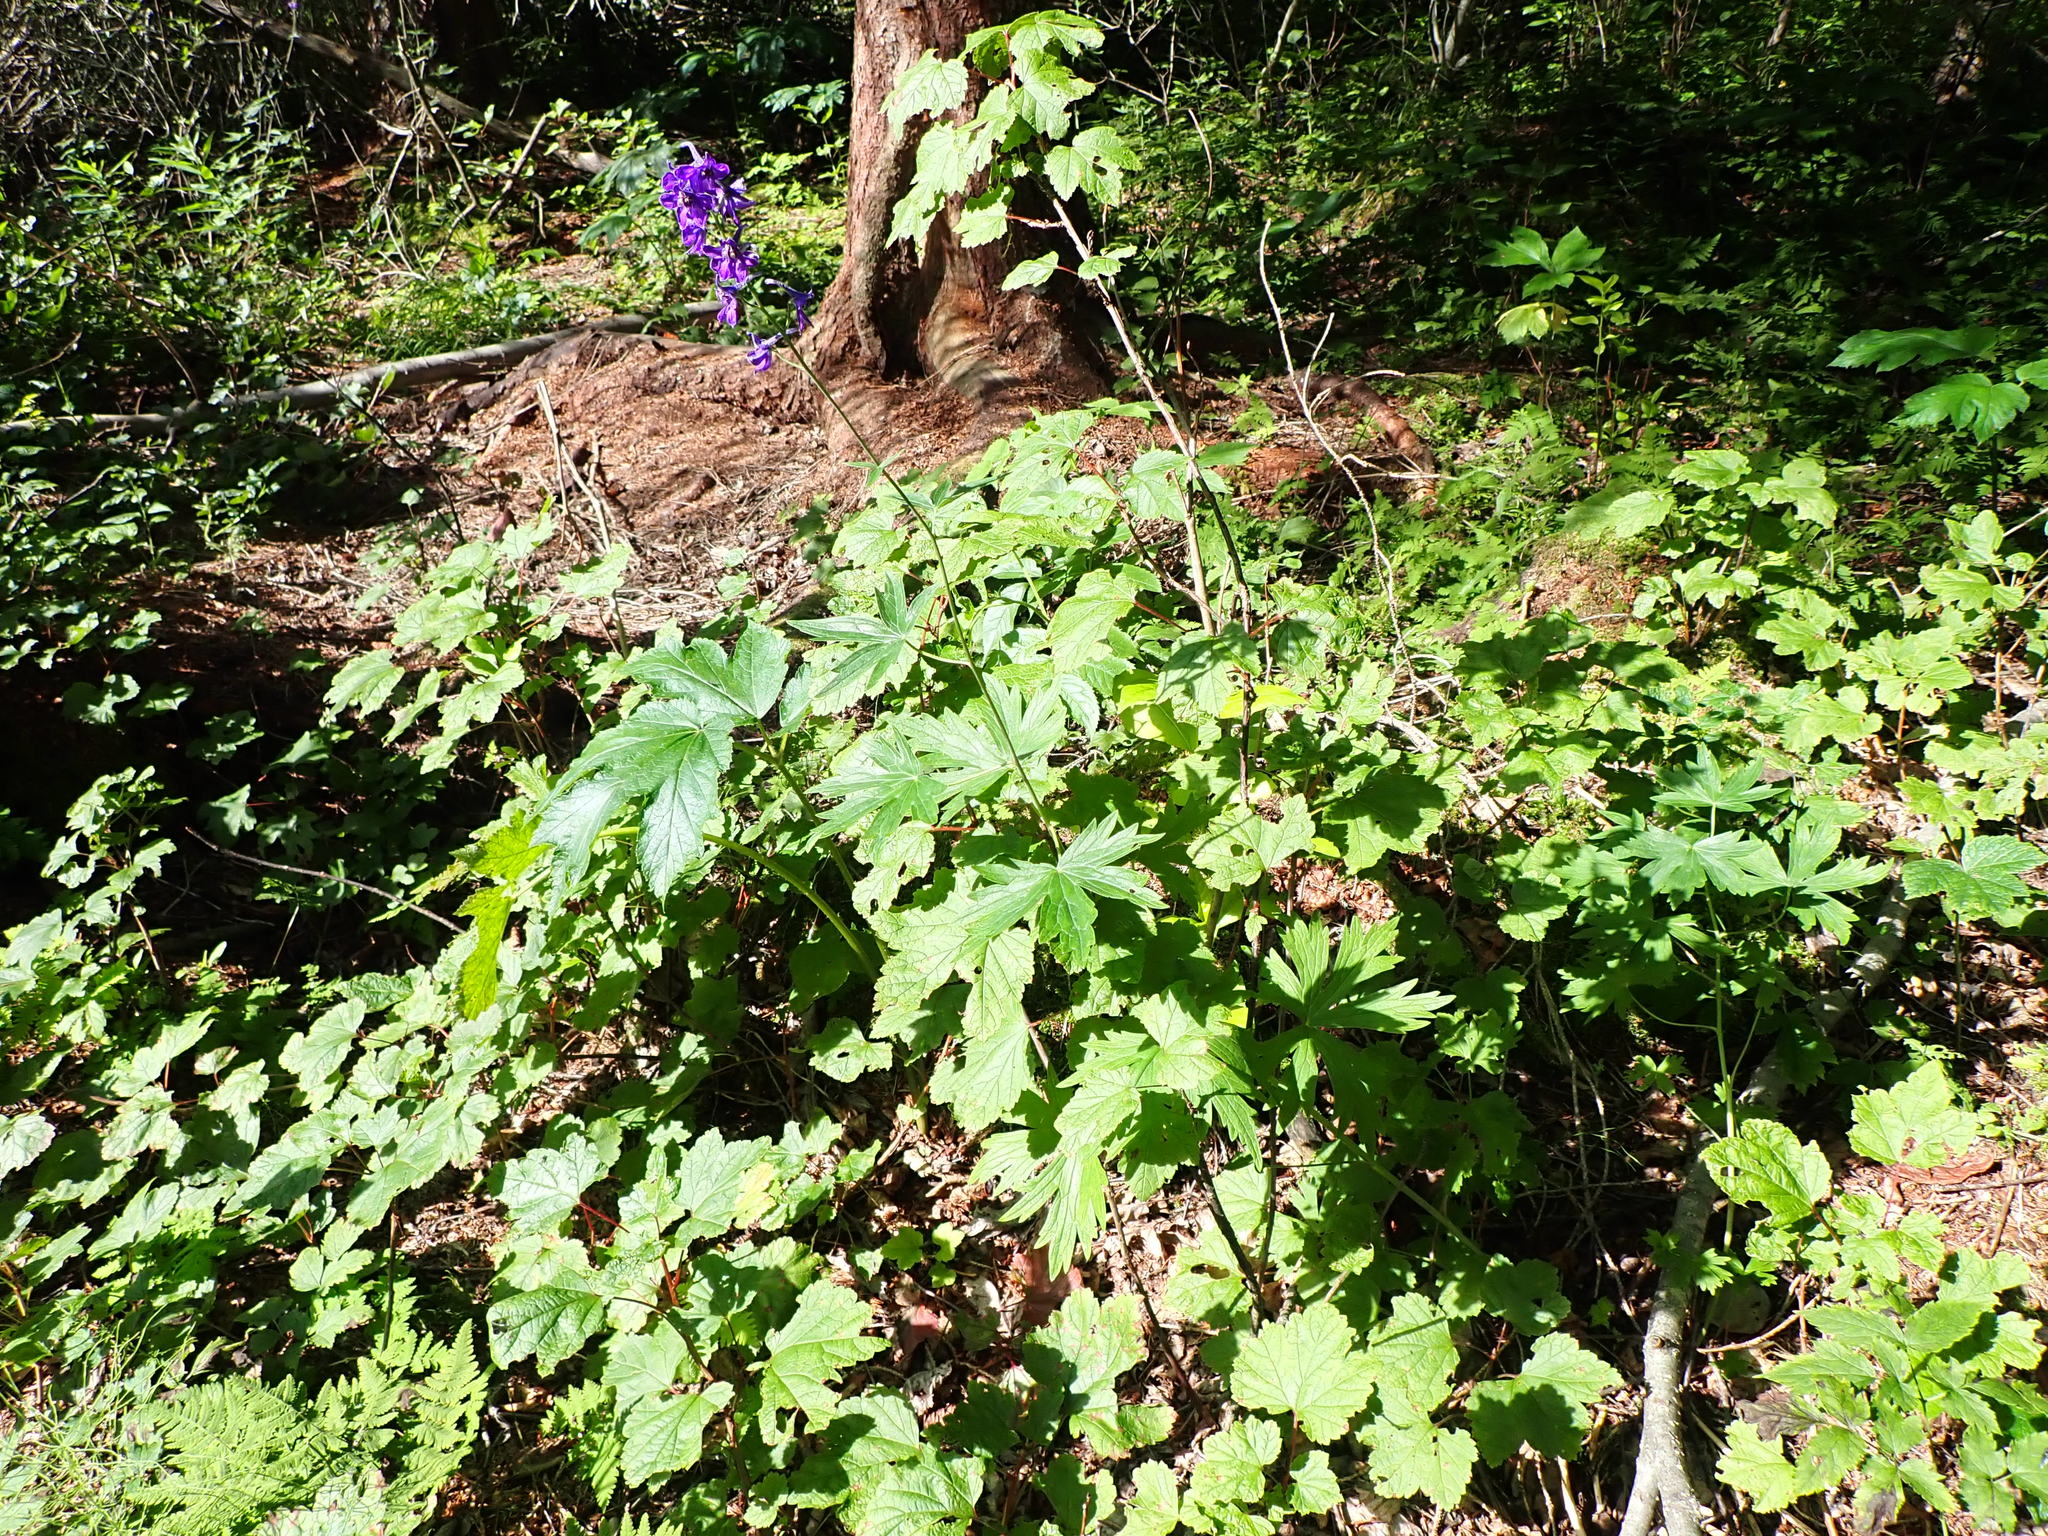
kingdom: Plantae
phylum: Tracheophyta
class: Magnoliopsida
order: Ranunculales
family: Ranunculaceae
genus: Delphinium
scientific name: Delphinium glaucum
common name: Brown's larkspur
